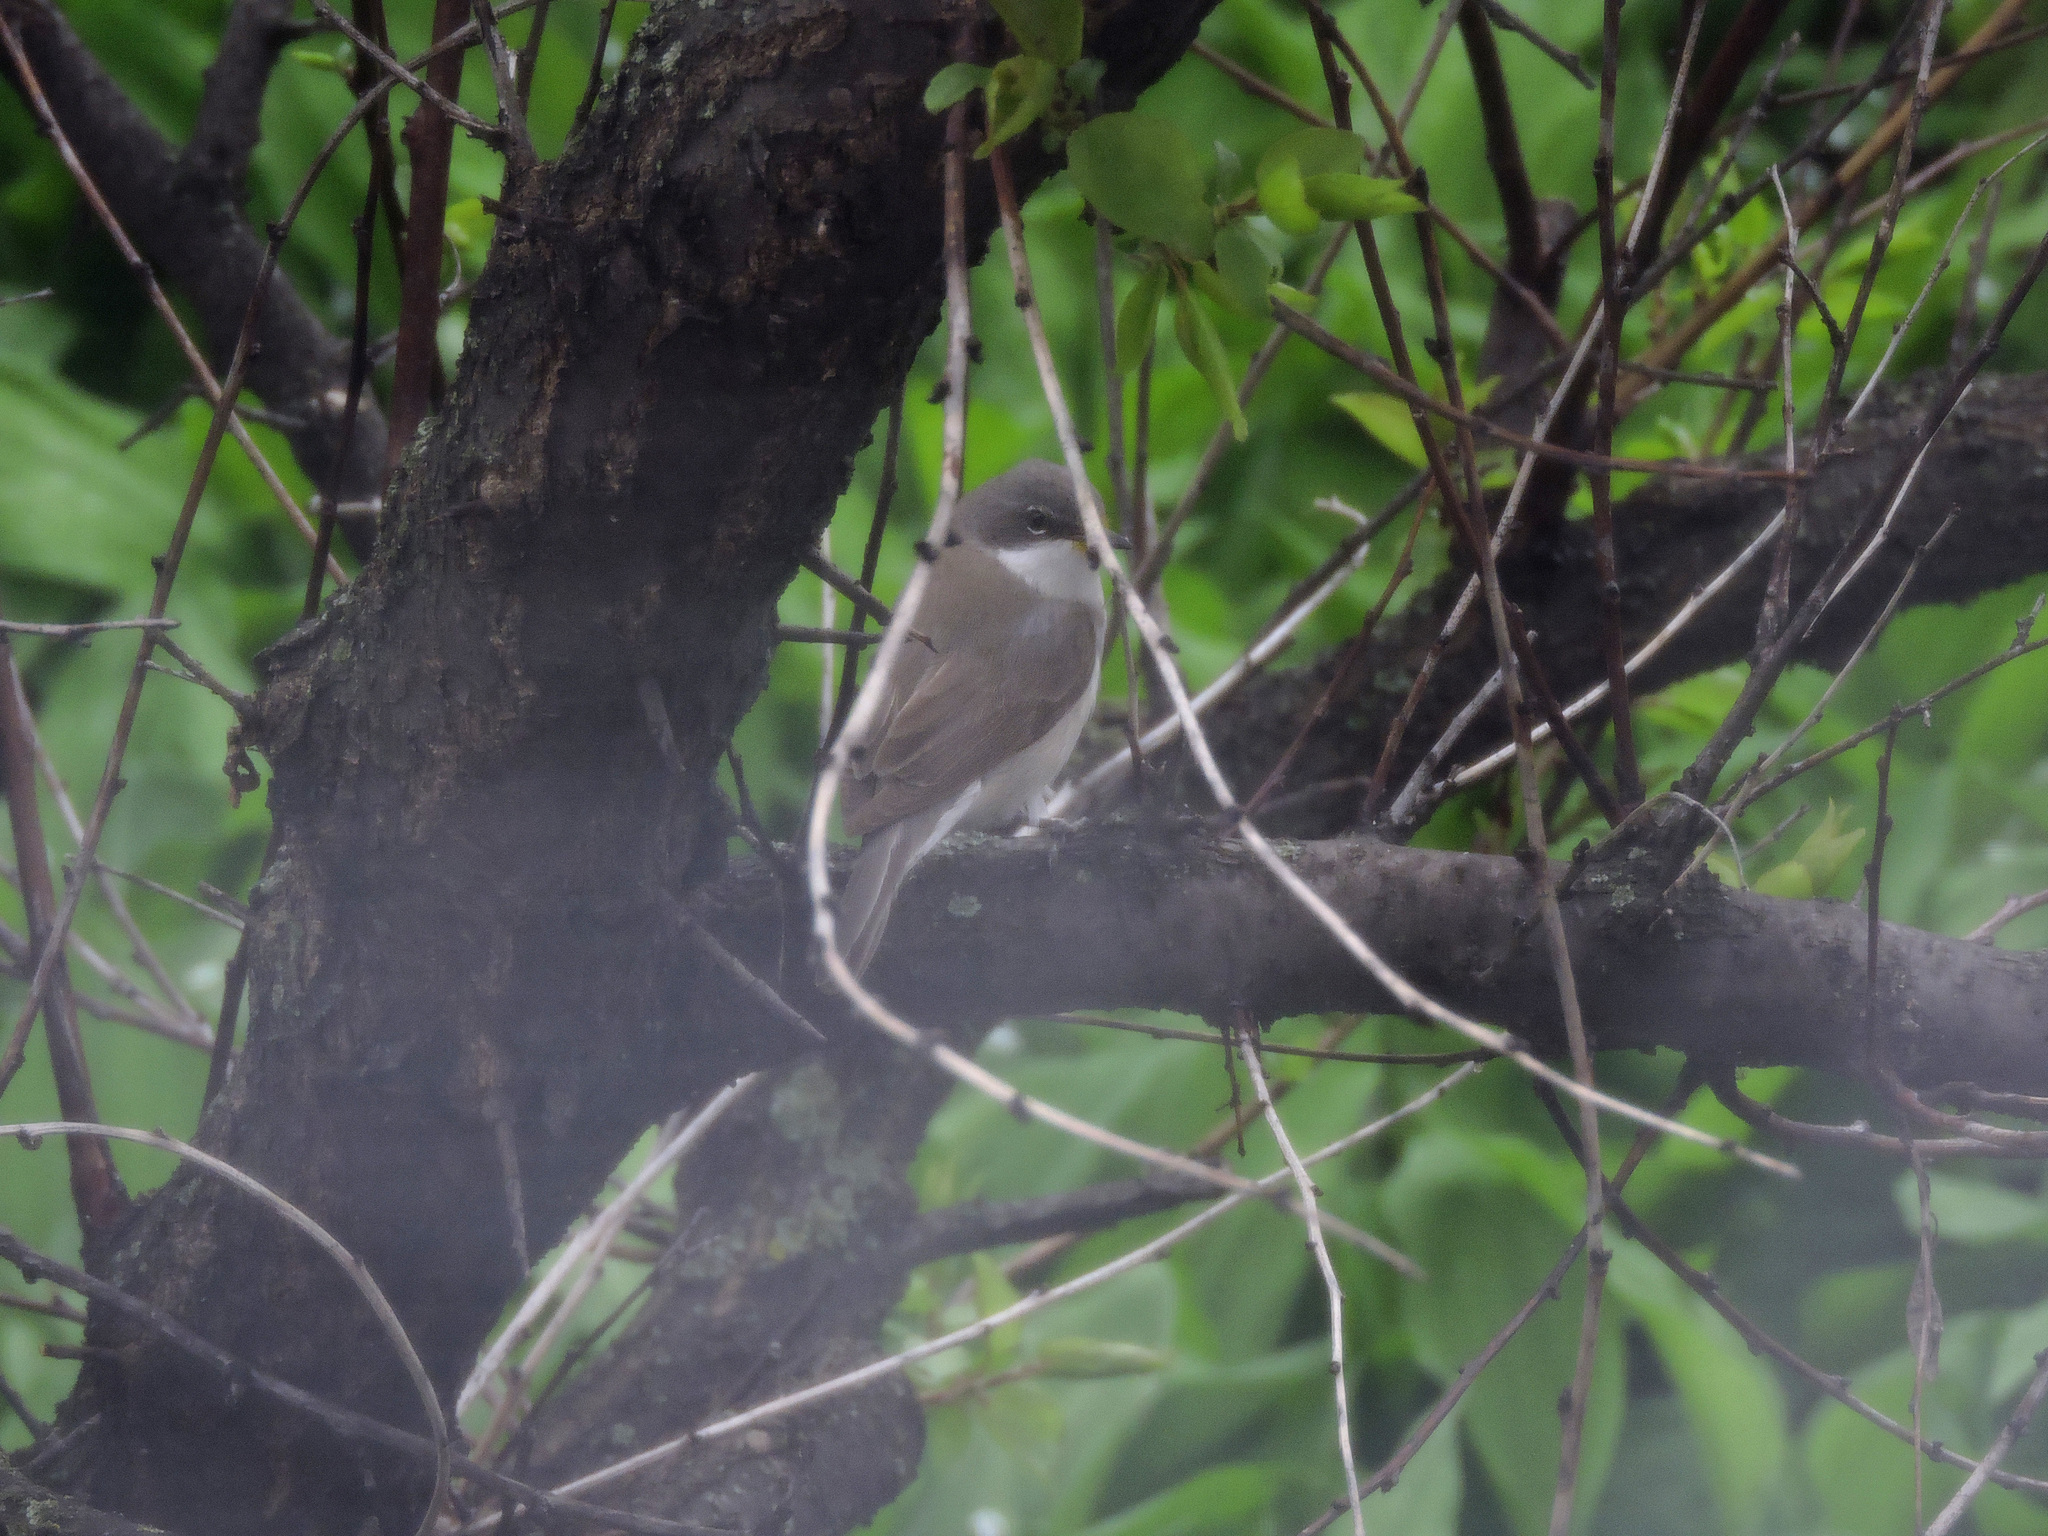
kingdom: Animalia
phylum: Chordata
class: Aves
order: Passeriformes
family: Sylviidae
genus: Sylvia
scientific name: Sylvia curruca
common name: Lesser whitethroat
